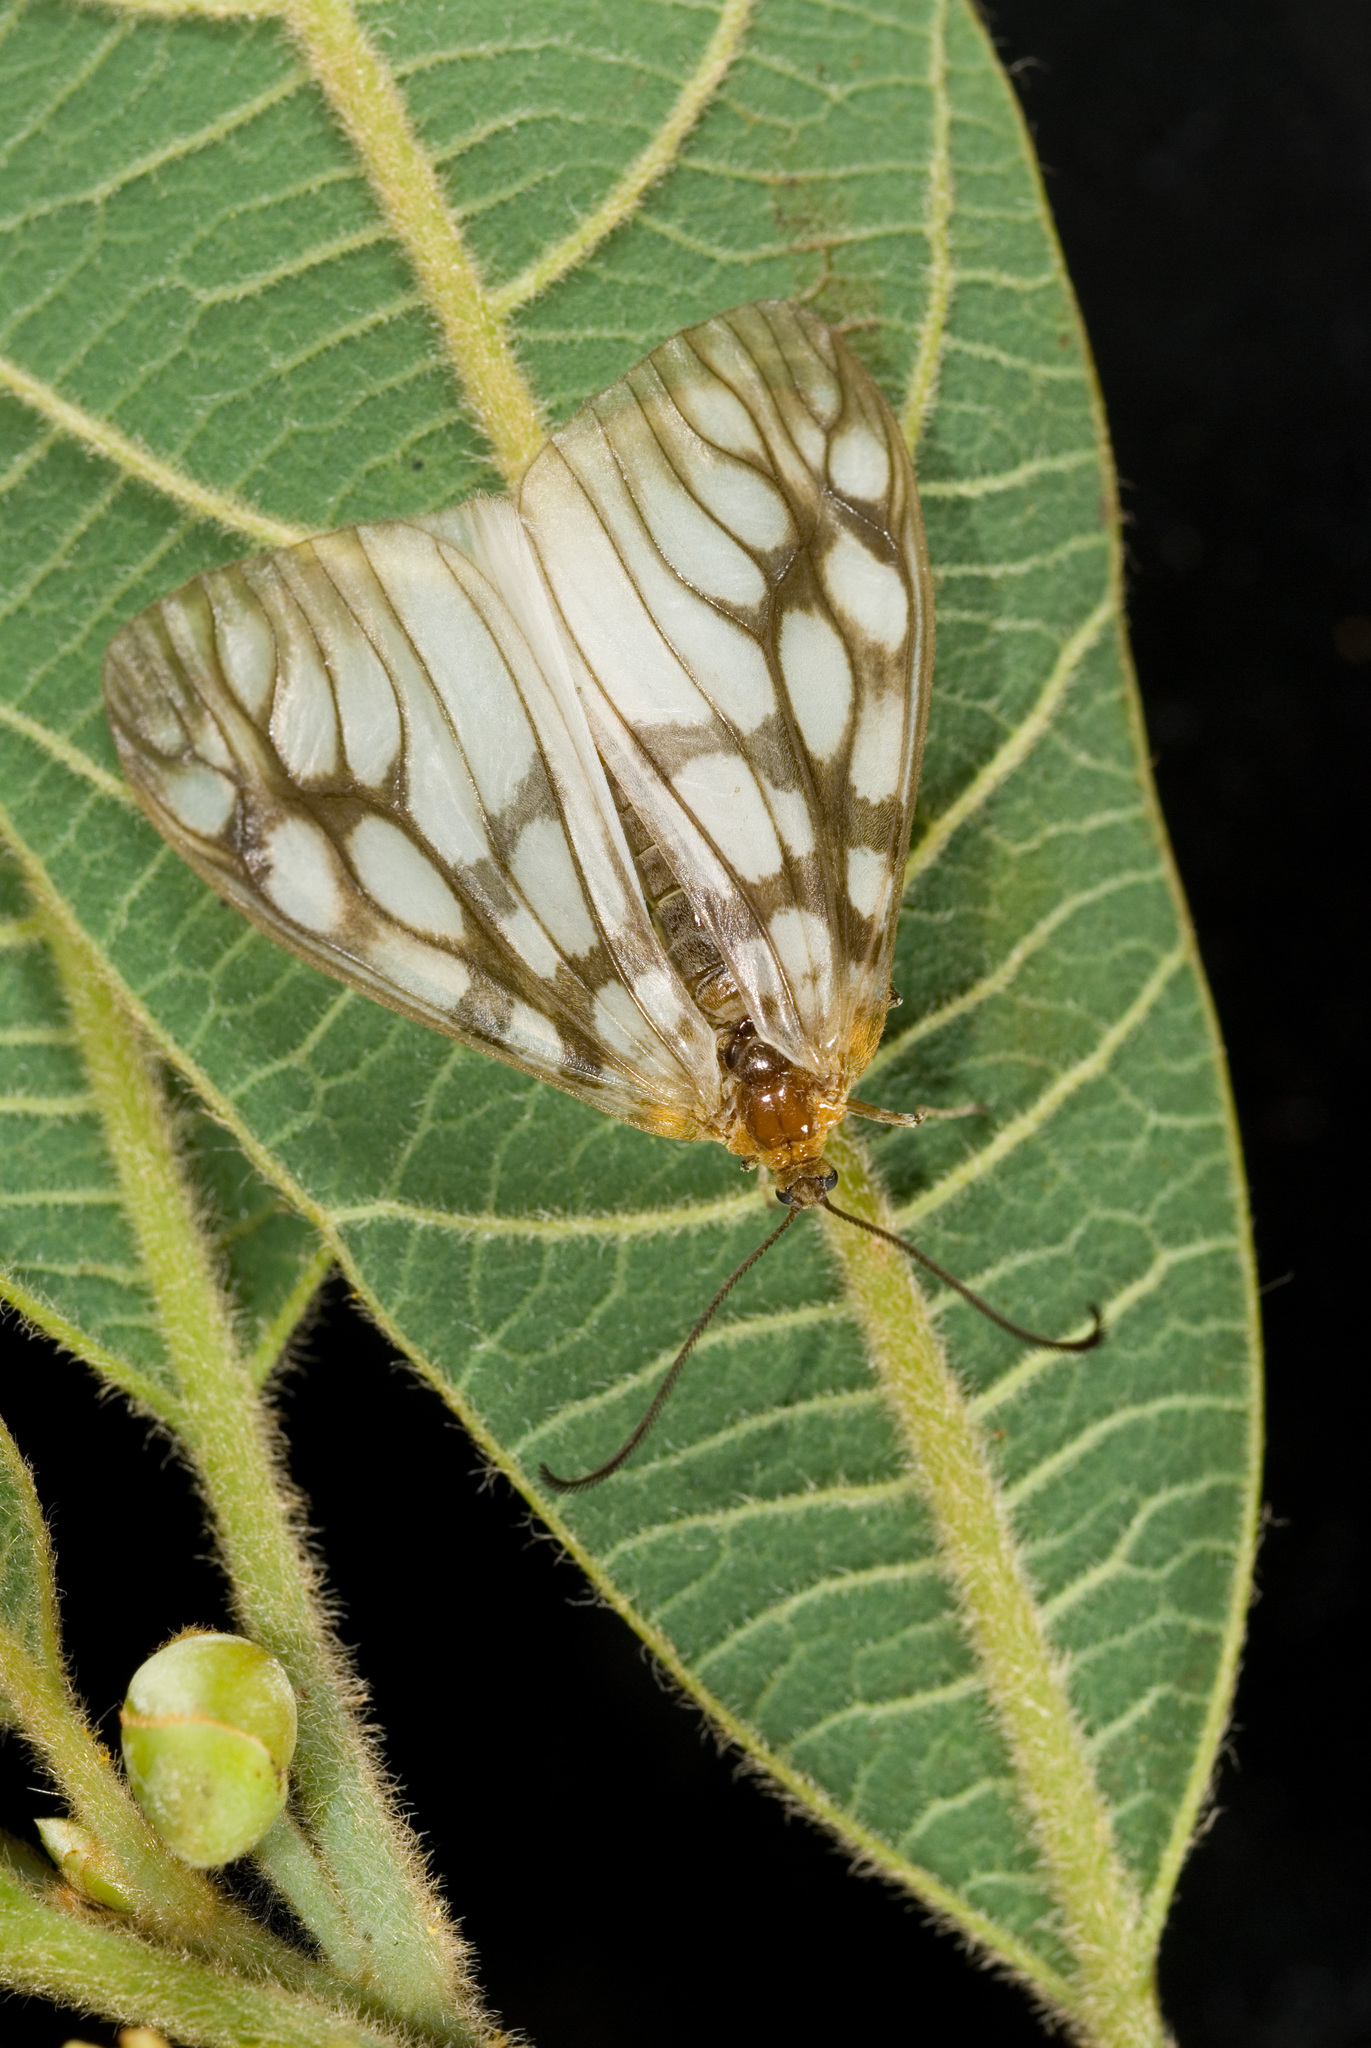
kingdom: Animalia
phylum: Arthropoda
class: Insecta
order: Lepidoptera
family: Zygaenidae
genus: Paragalope
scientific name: Paragalope pica
